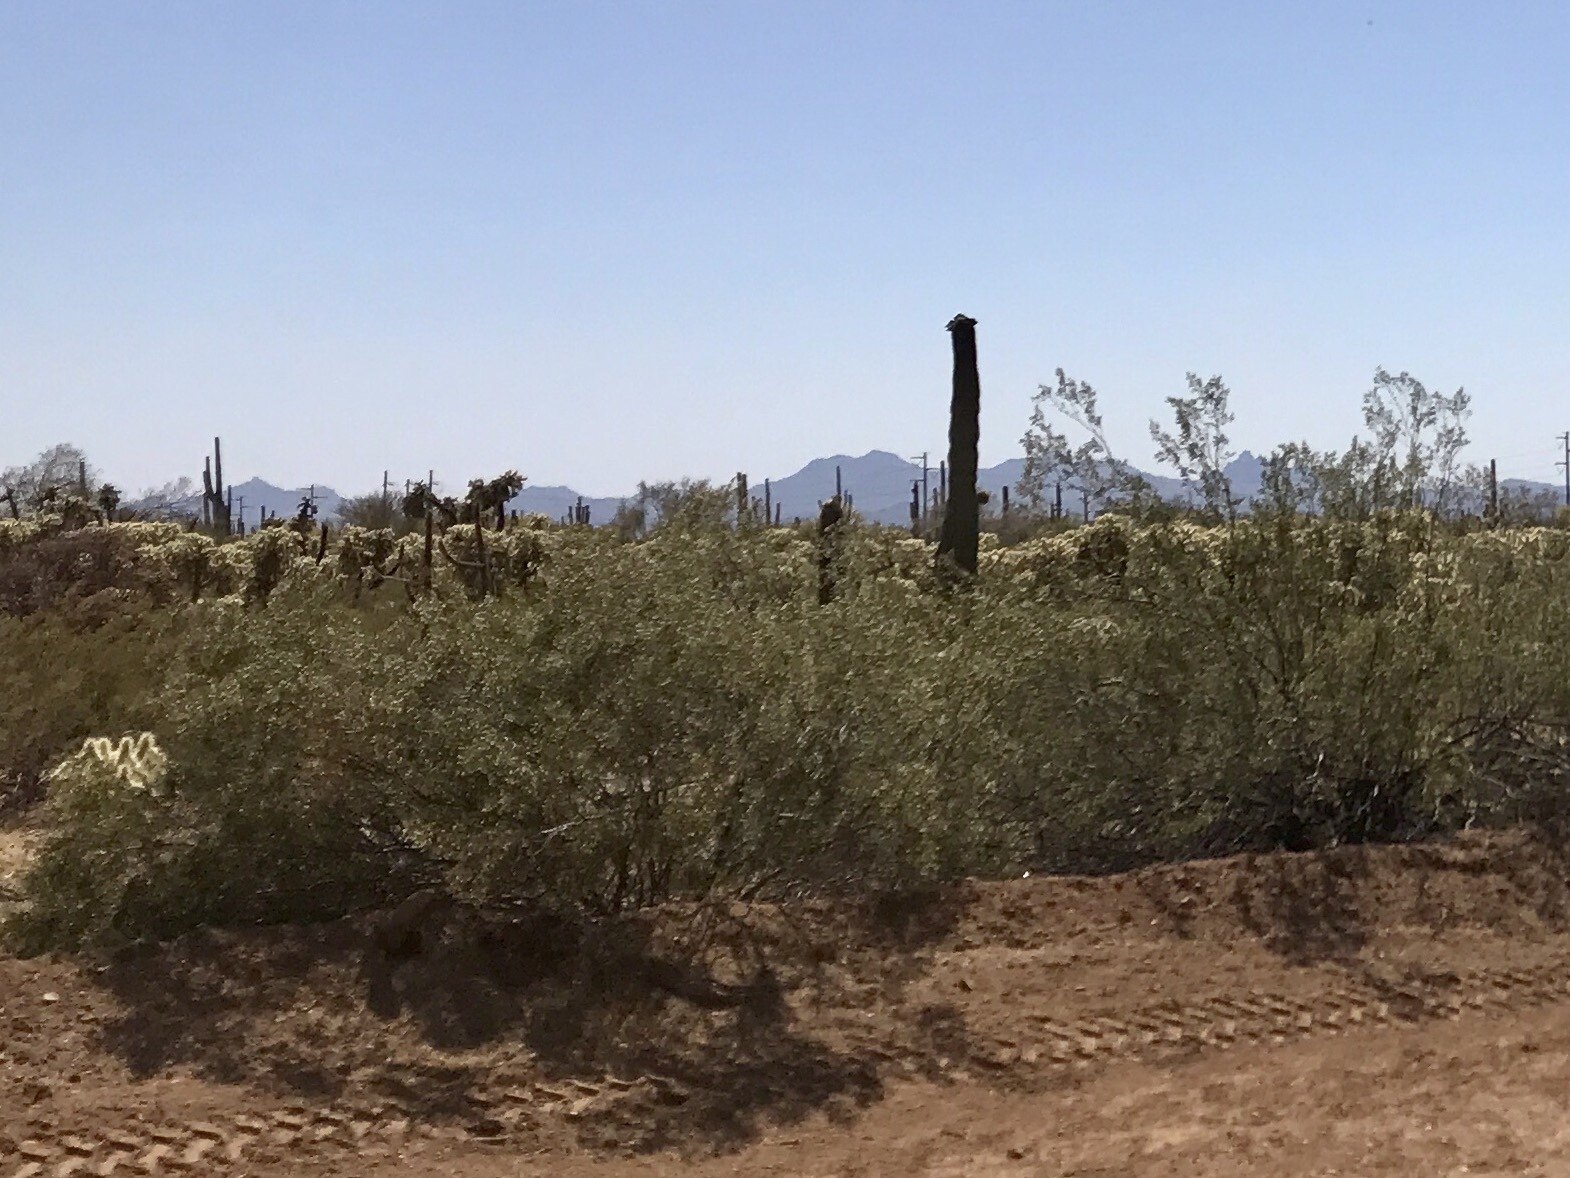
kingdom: Plantae
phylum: Tracheophyta
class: Magnoliopsida
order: Zygophyllales
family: Zygophyllaceae
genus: Larrea
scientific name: Larrea tridentata
